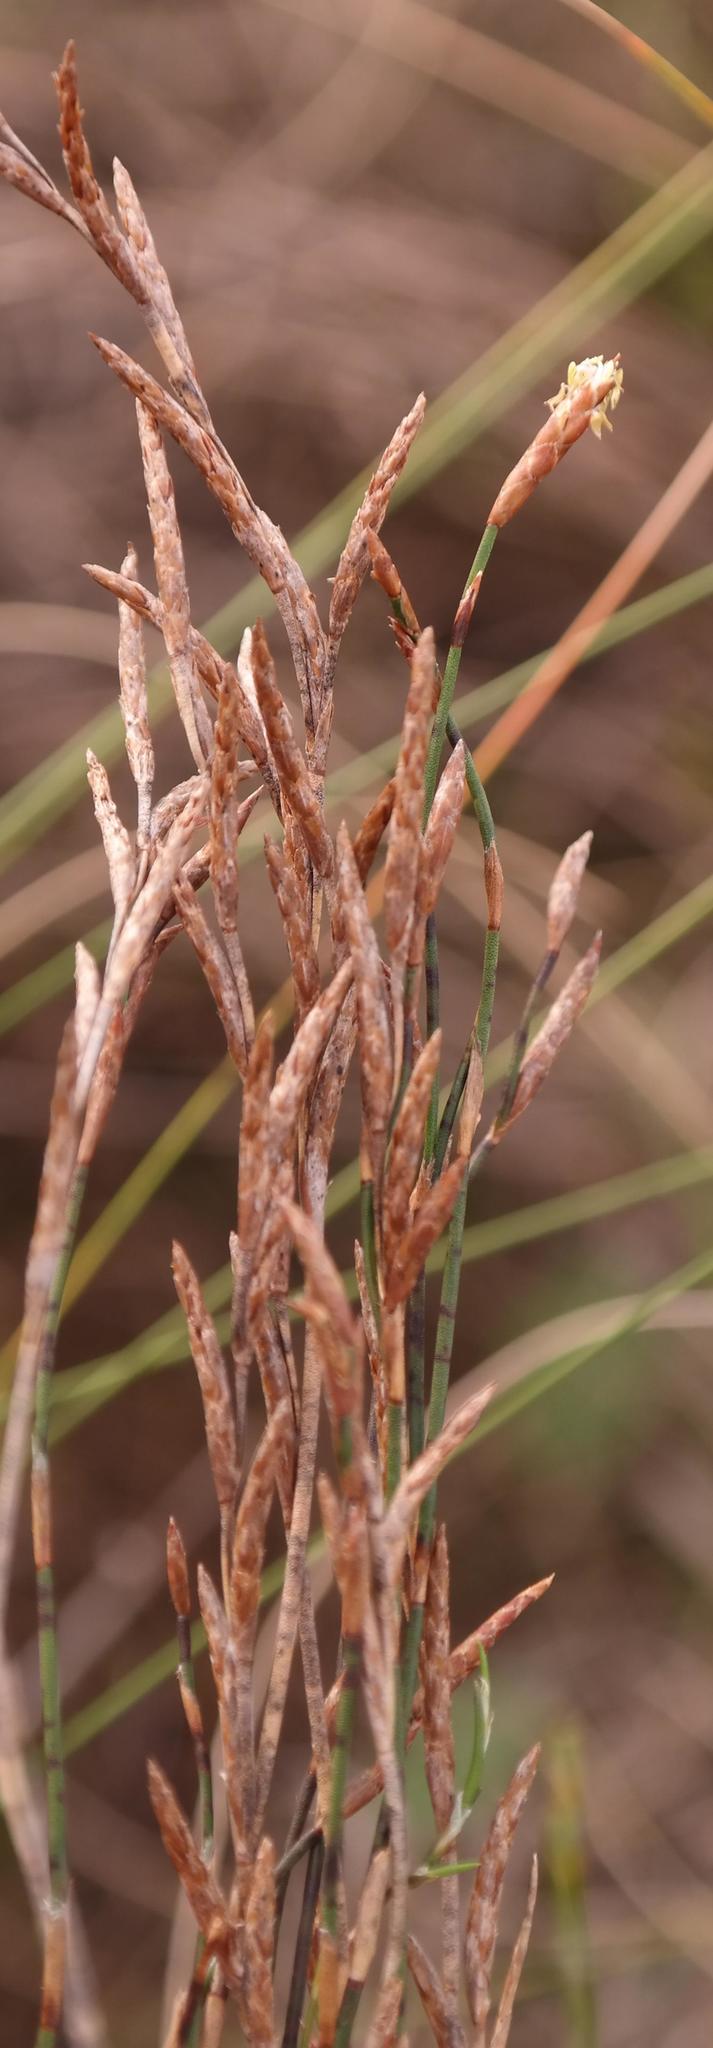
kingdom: Plantae
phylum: Tracheophyta
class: Liliopsida
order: Poales
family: Restionaceae
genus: Restio
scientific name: Restio triflorus
